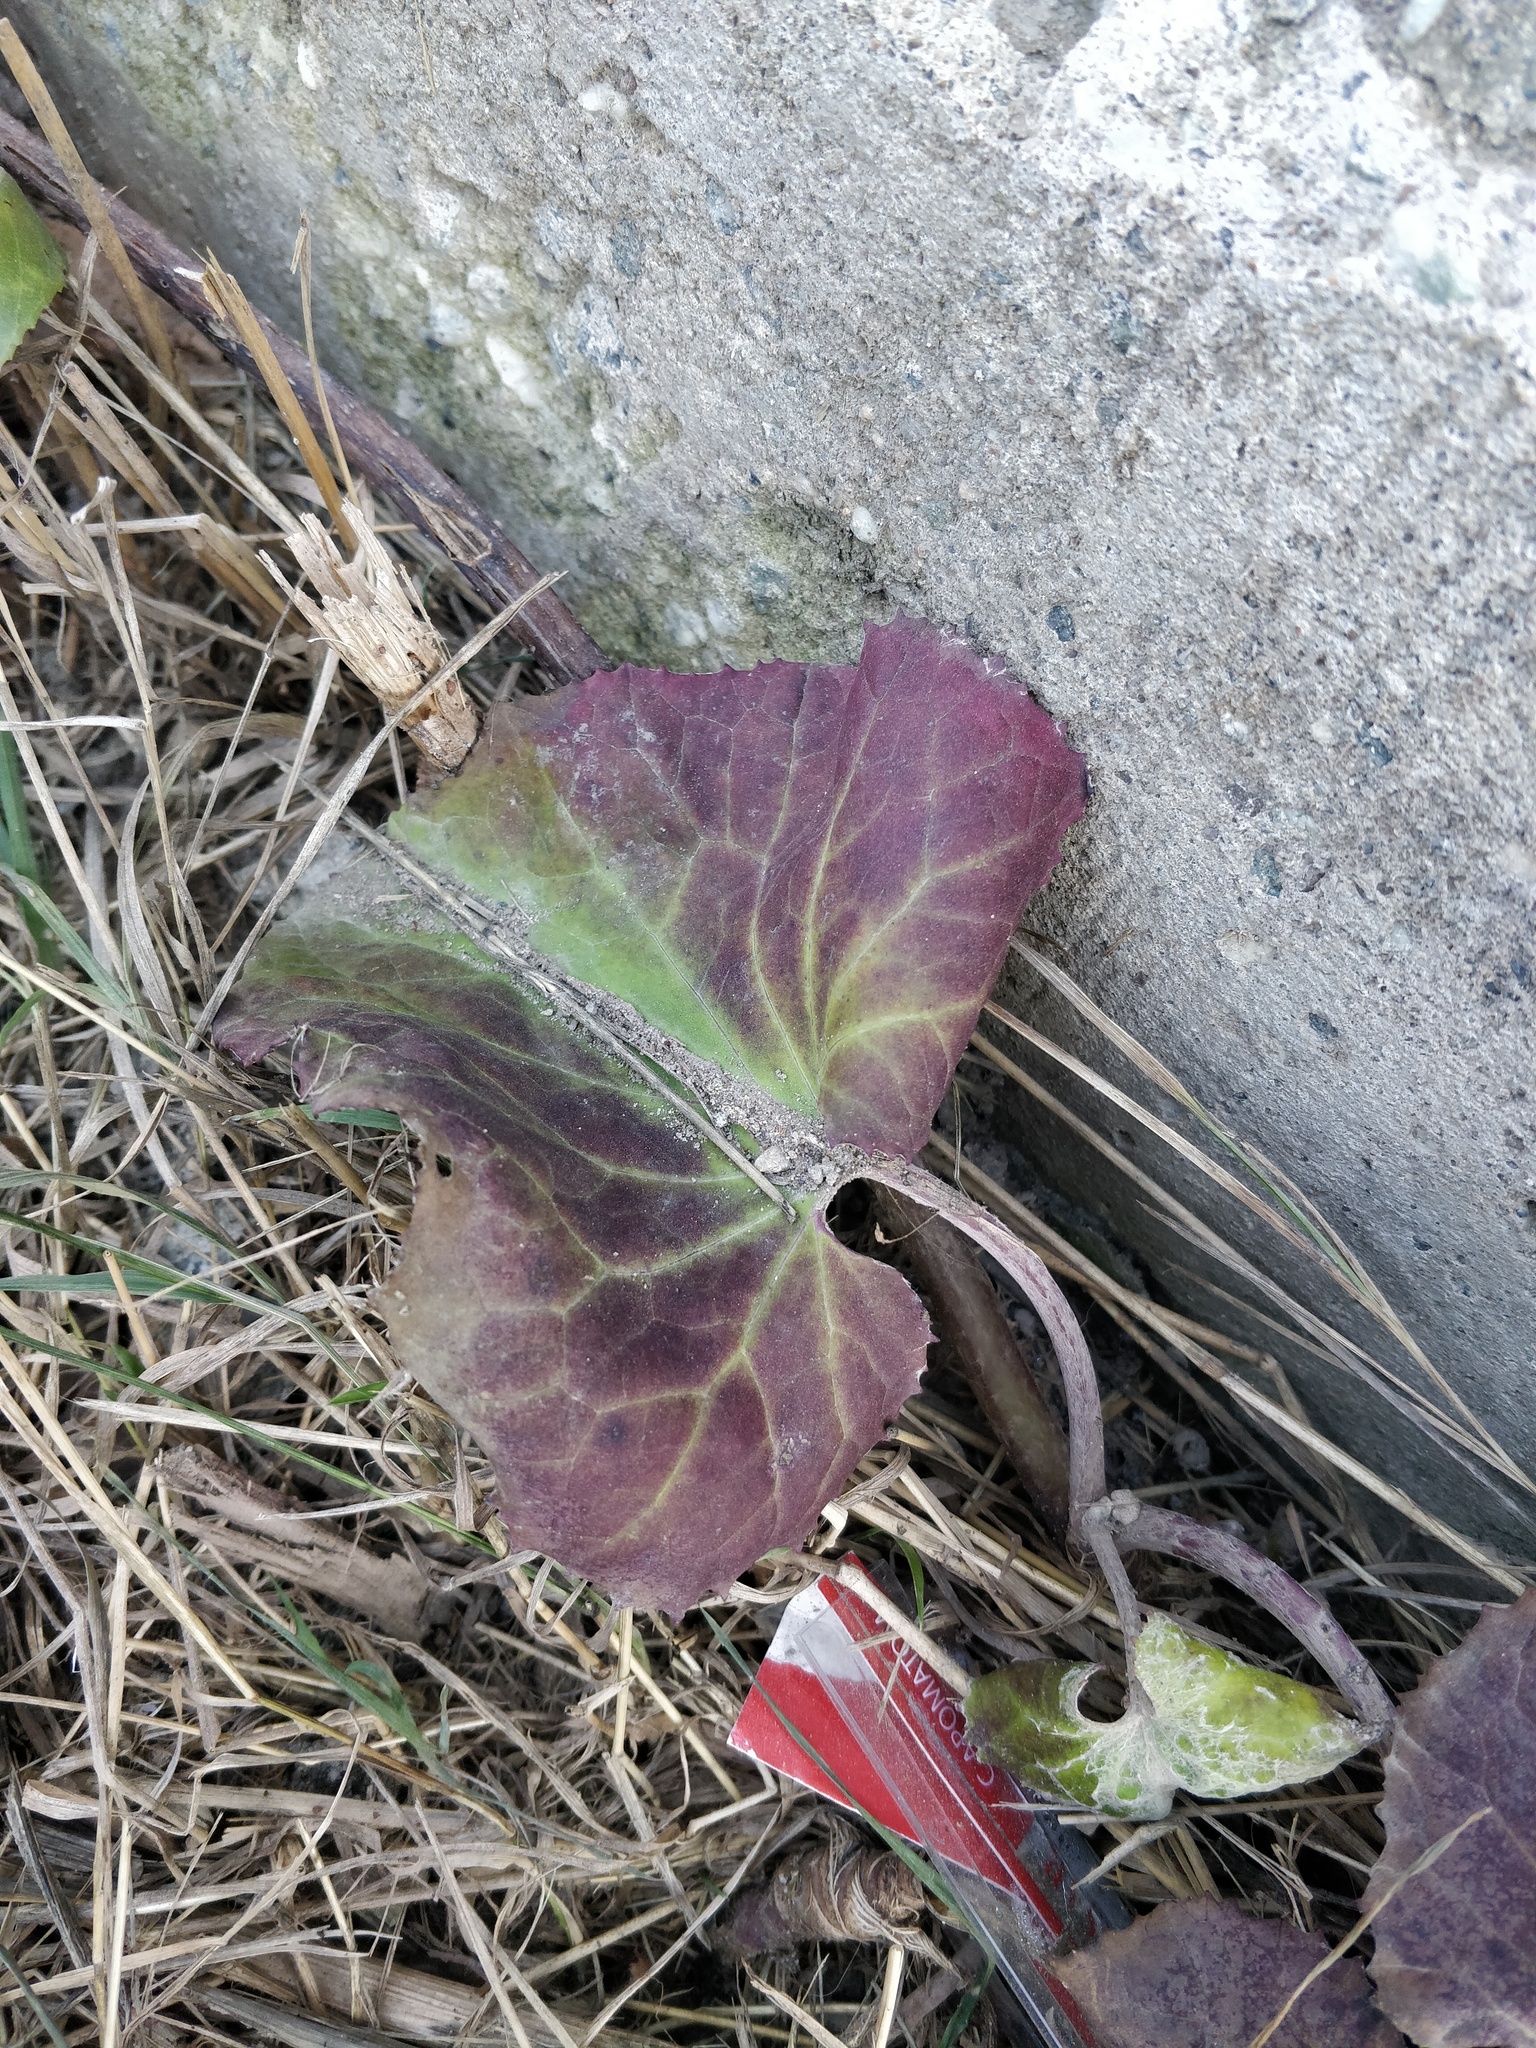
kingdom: Plantae
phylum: Tracheophyta
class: Magnoliopsida
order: Asterales
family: Asteraceae
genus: Tussilago
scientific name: Tussilago farfara
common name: Coltsfoot
